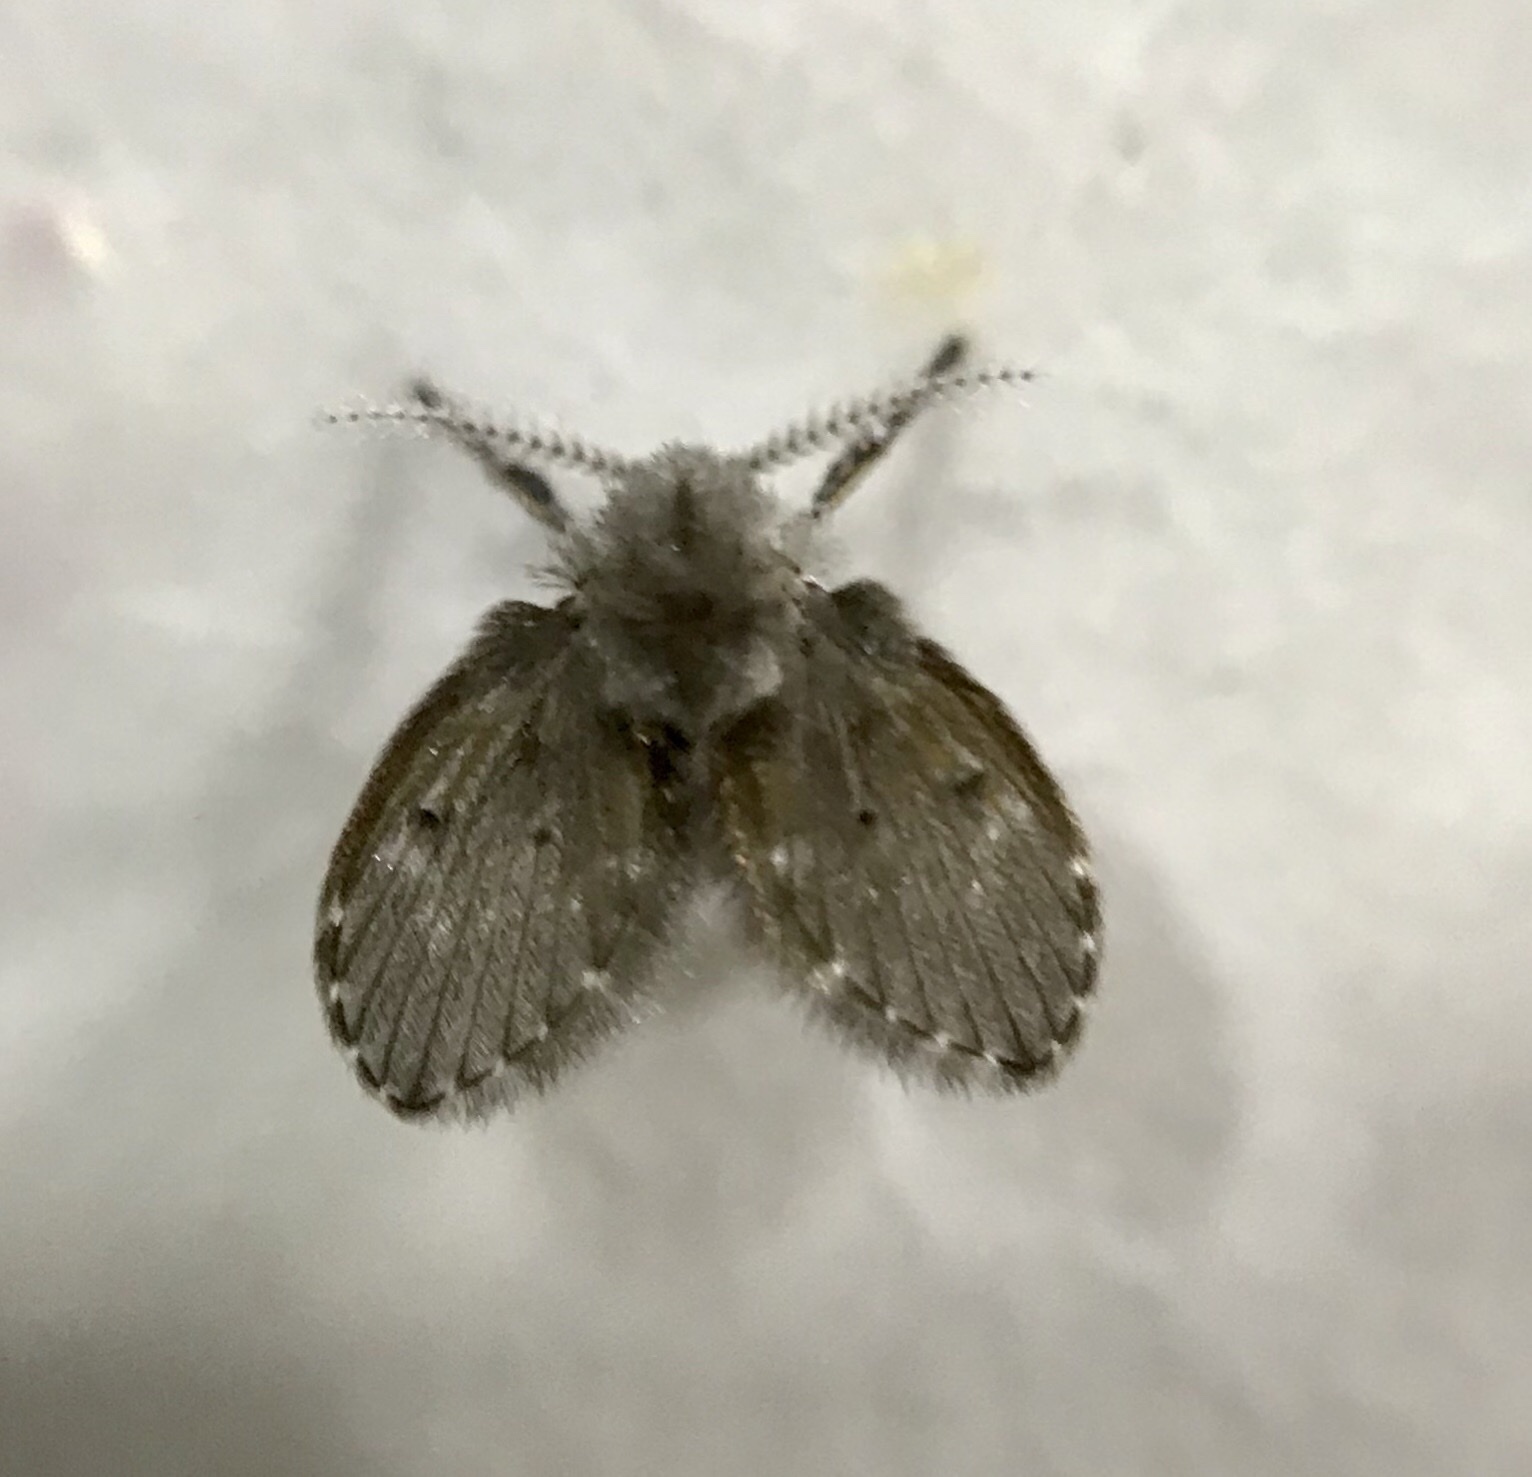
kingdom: Animalia
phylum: Arthropoda
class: Insecta
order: Diptera
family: Psychodidae
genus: Clogmia
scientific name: Clogmia albipunctatus
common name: White-spotted moth fly
